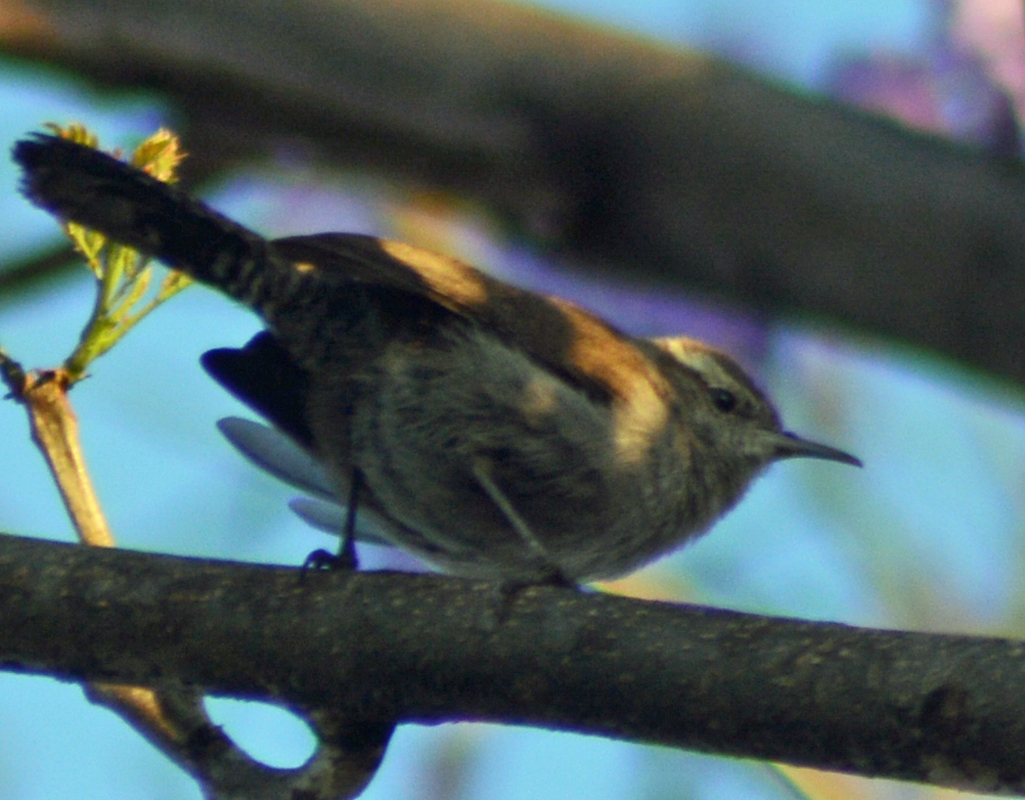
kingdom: Animalia
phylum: Chordata
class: Aves
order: Passeriformes
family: Troglodytidae
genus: Thryomanes
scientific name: Thryomanes bewickii
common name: Bewick's wren
